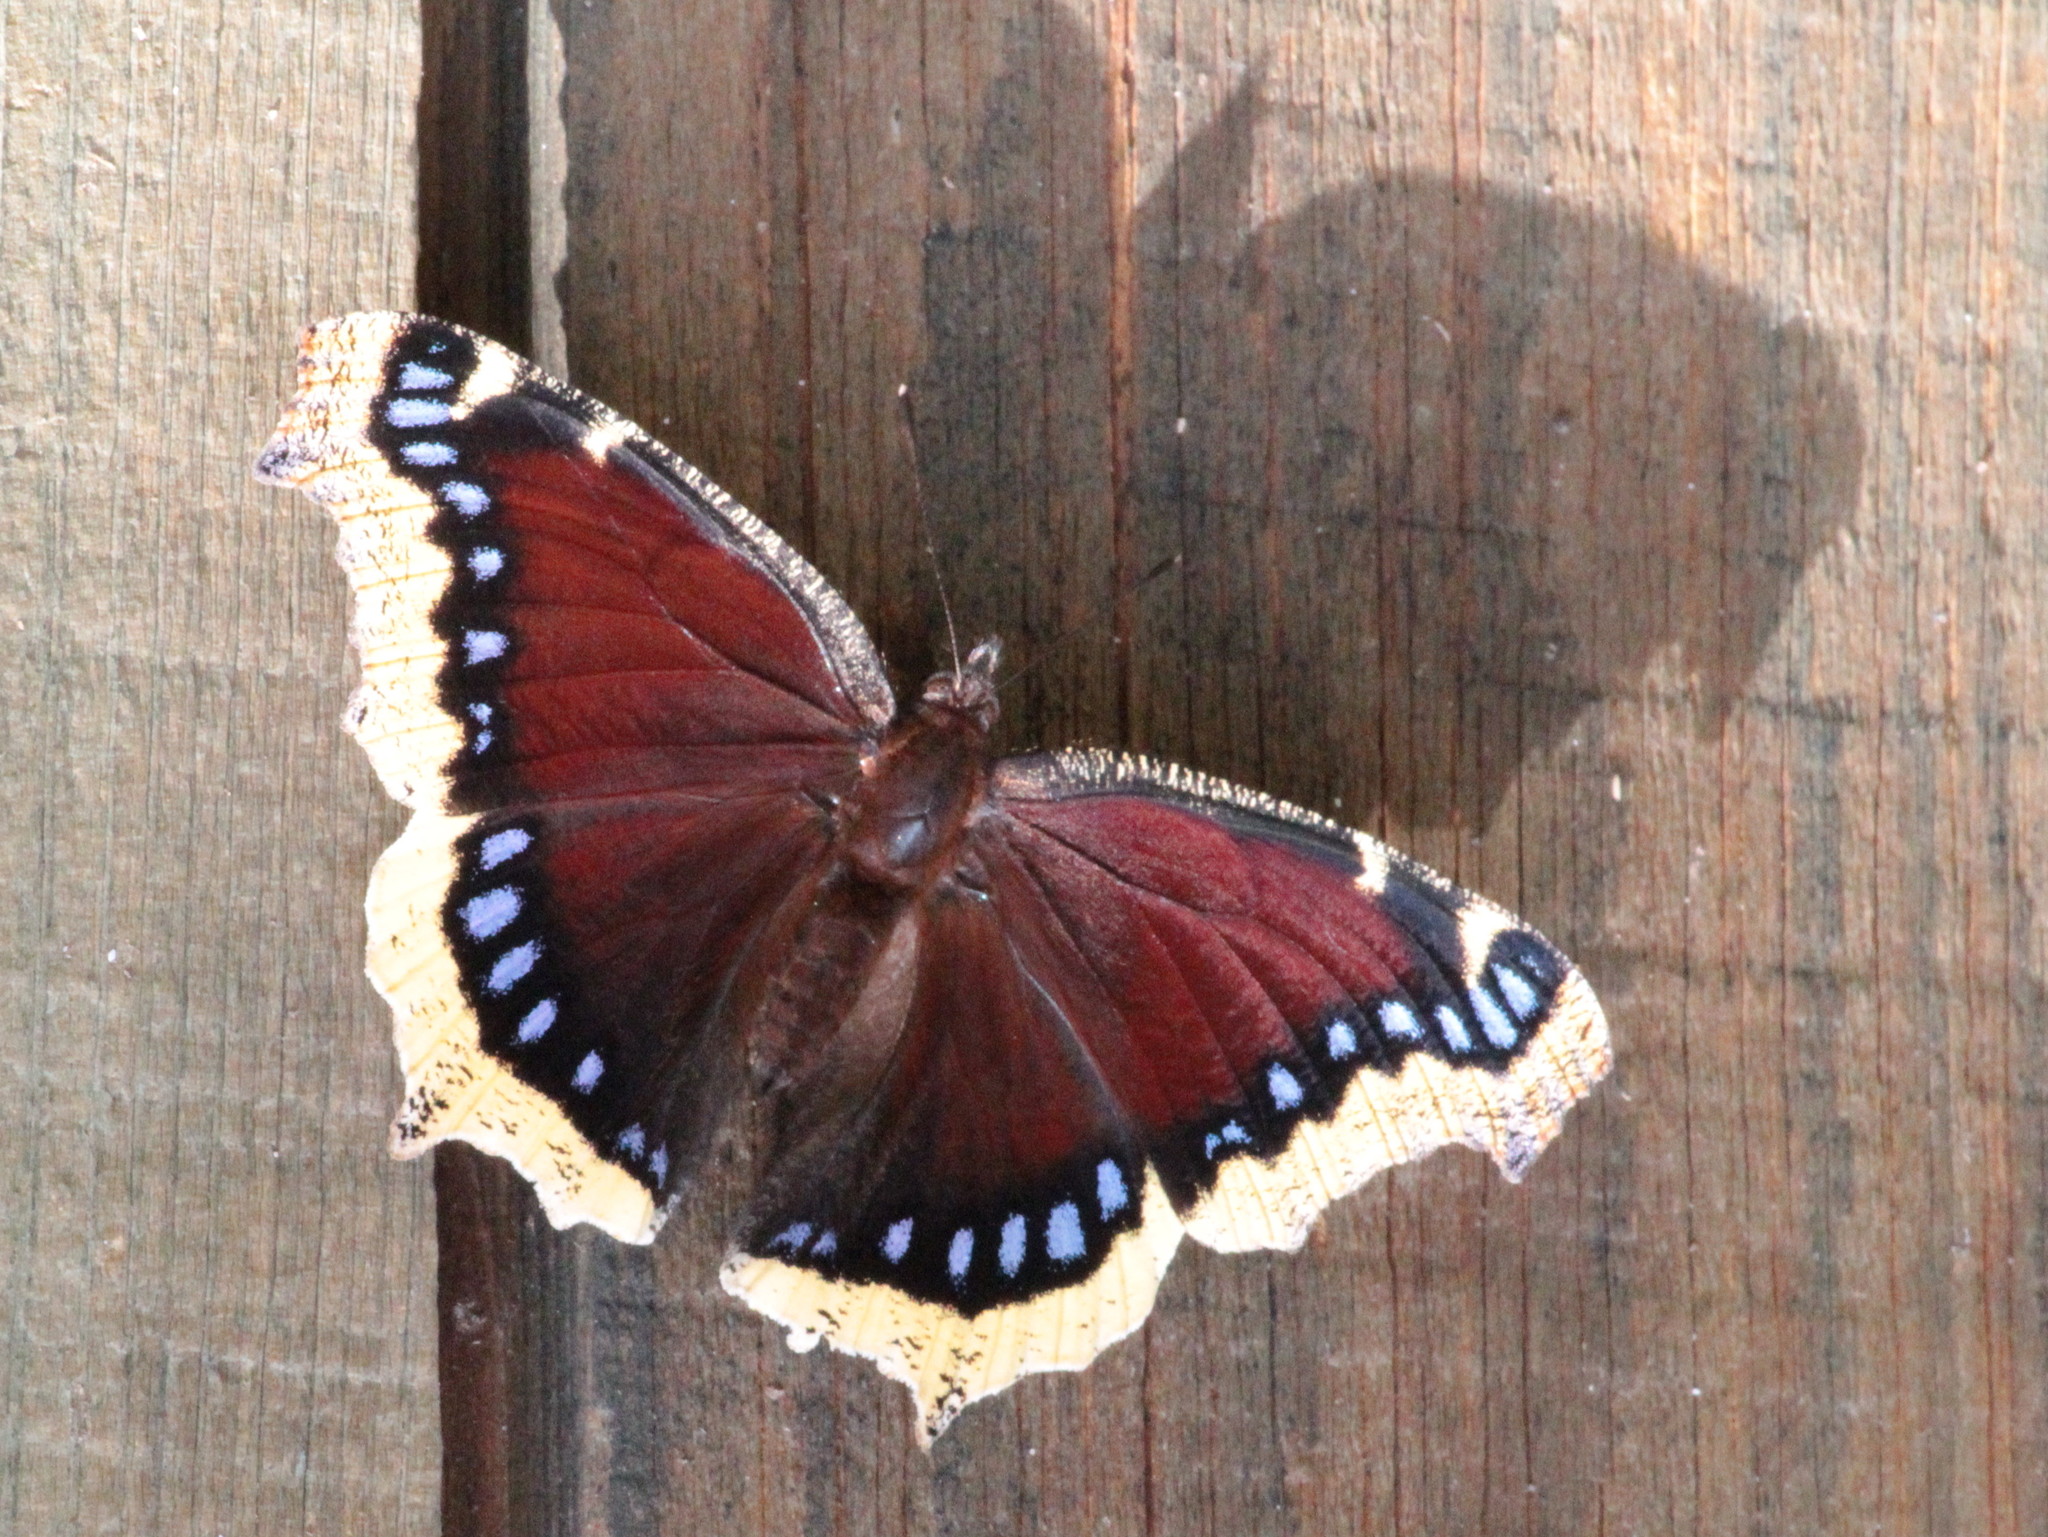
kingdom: Animalia
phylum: Arthropoda
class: Insecta
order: Lepidoptera
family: Nymphalidae
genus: Nymphalis
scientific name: Nymphalis antiopa
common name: Camberwell beauty
